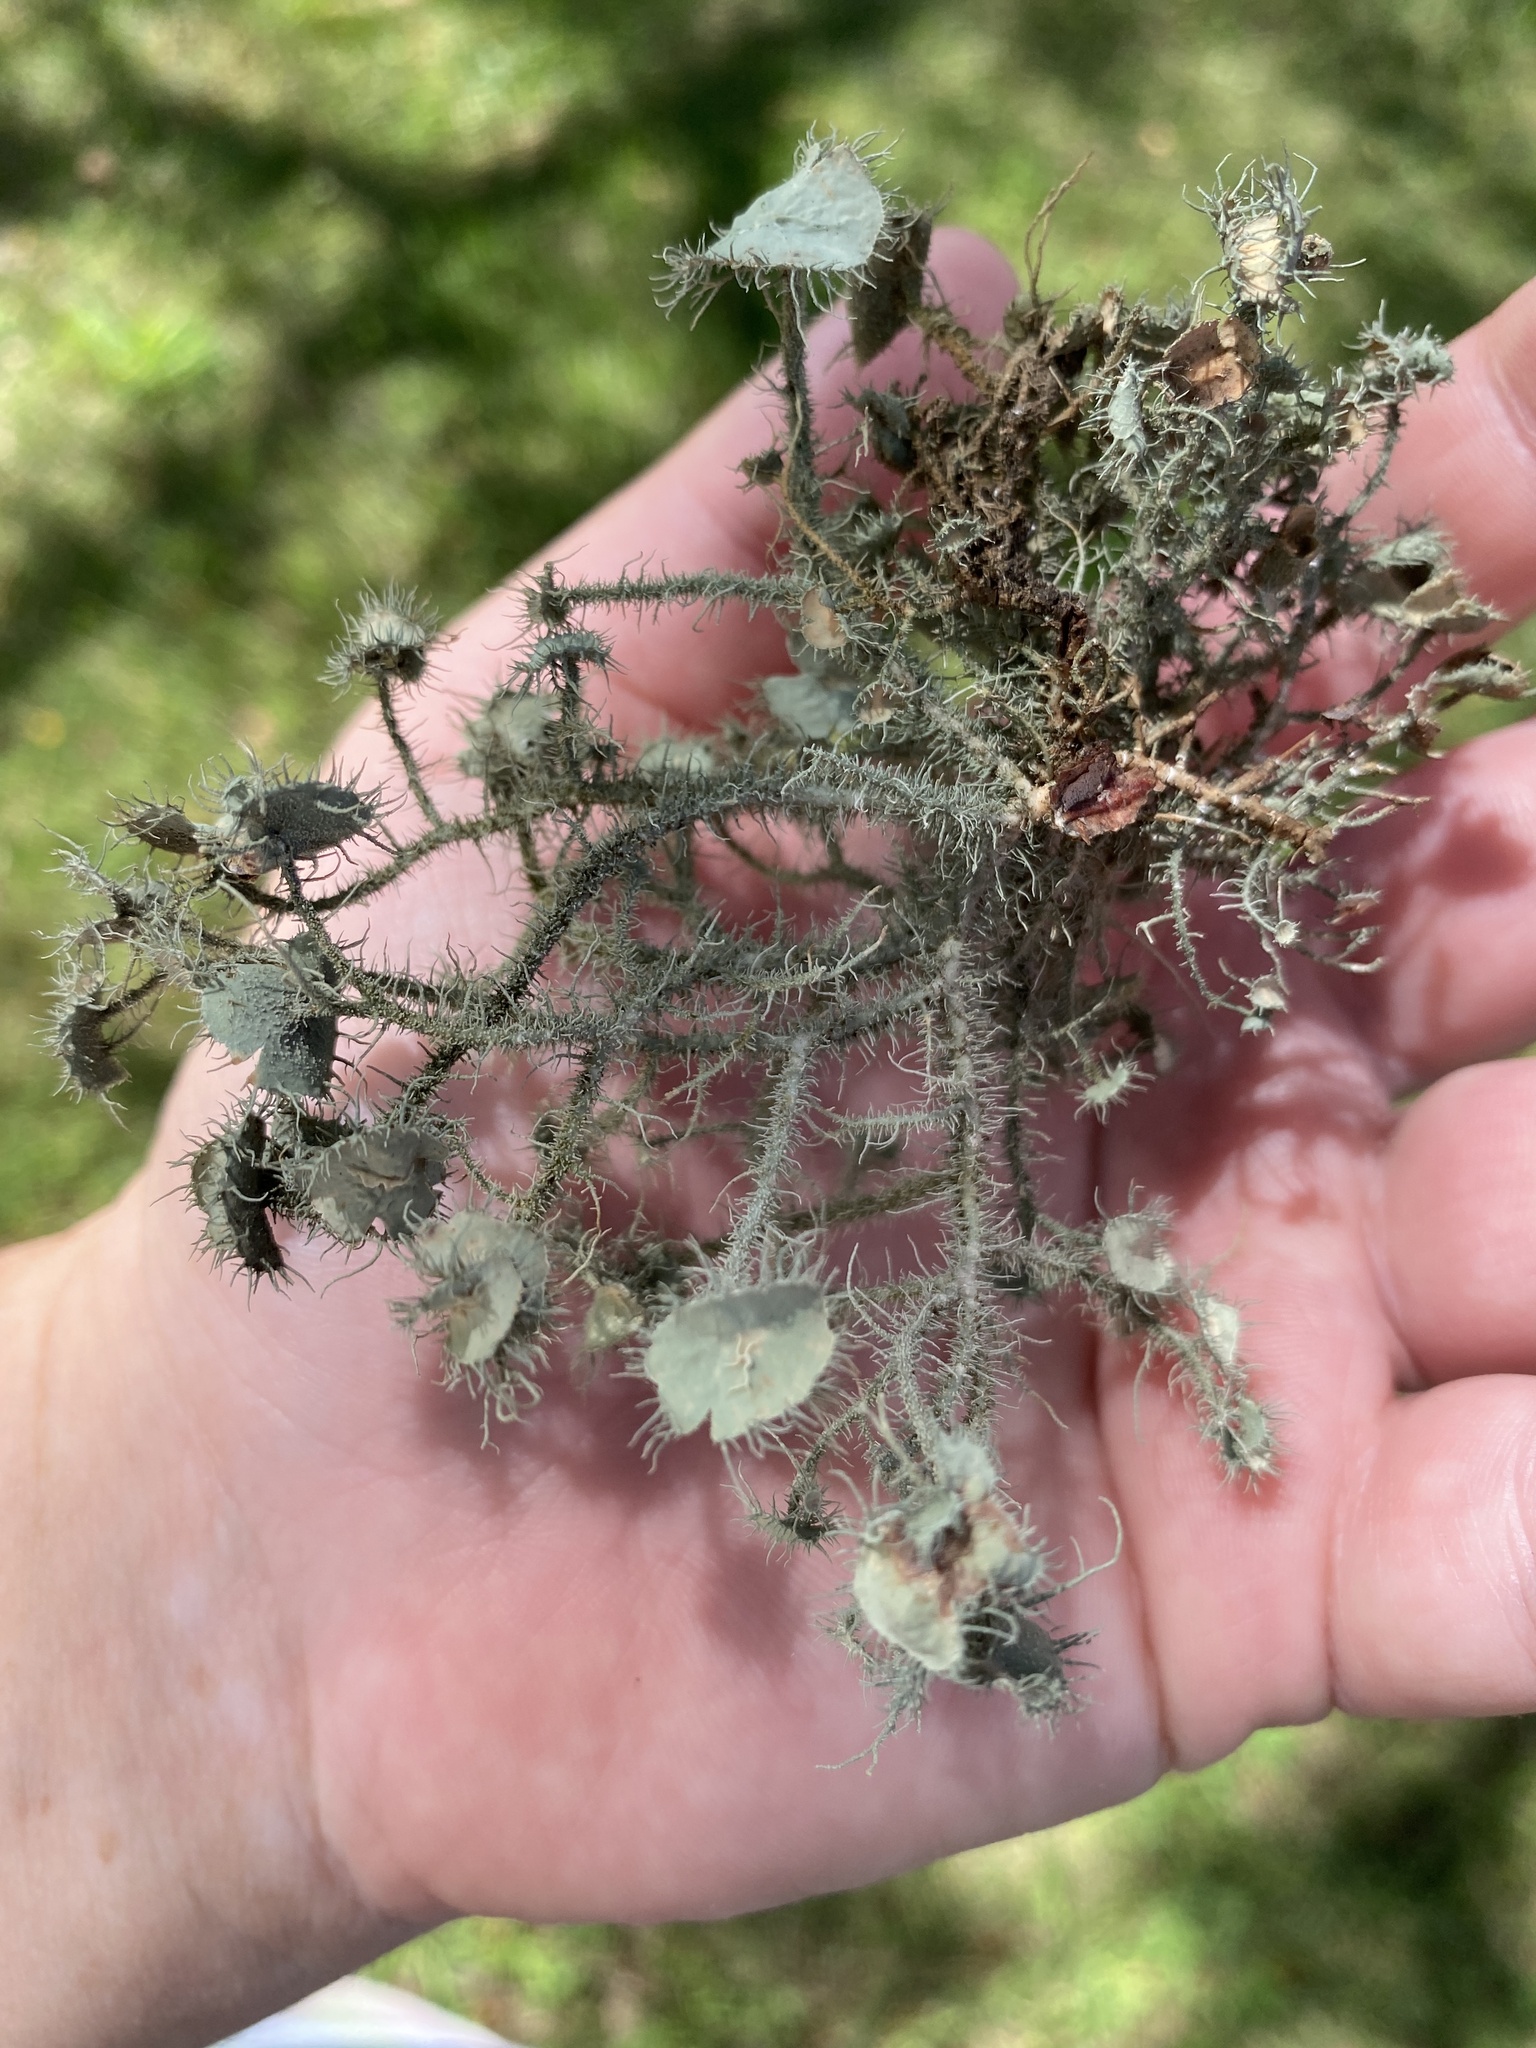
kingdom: Fungi
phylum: Ascomycota
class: Lecanoromycetes
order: Lecanorales
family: Parmeliaceae
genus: Usnea
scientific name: Usnea strigosa
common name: Bushy beard lichen
